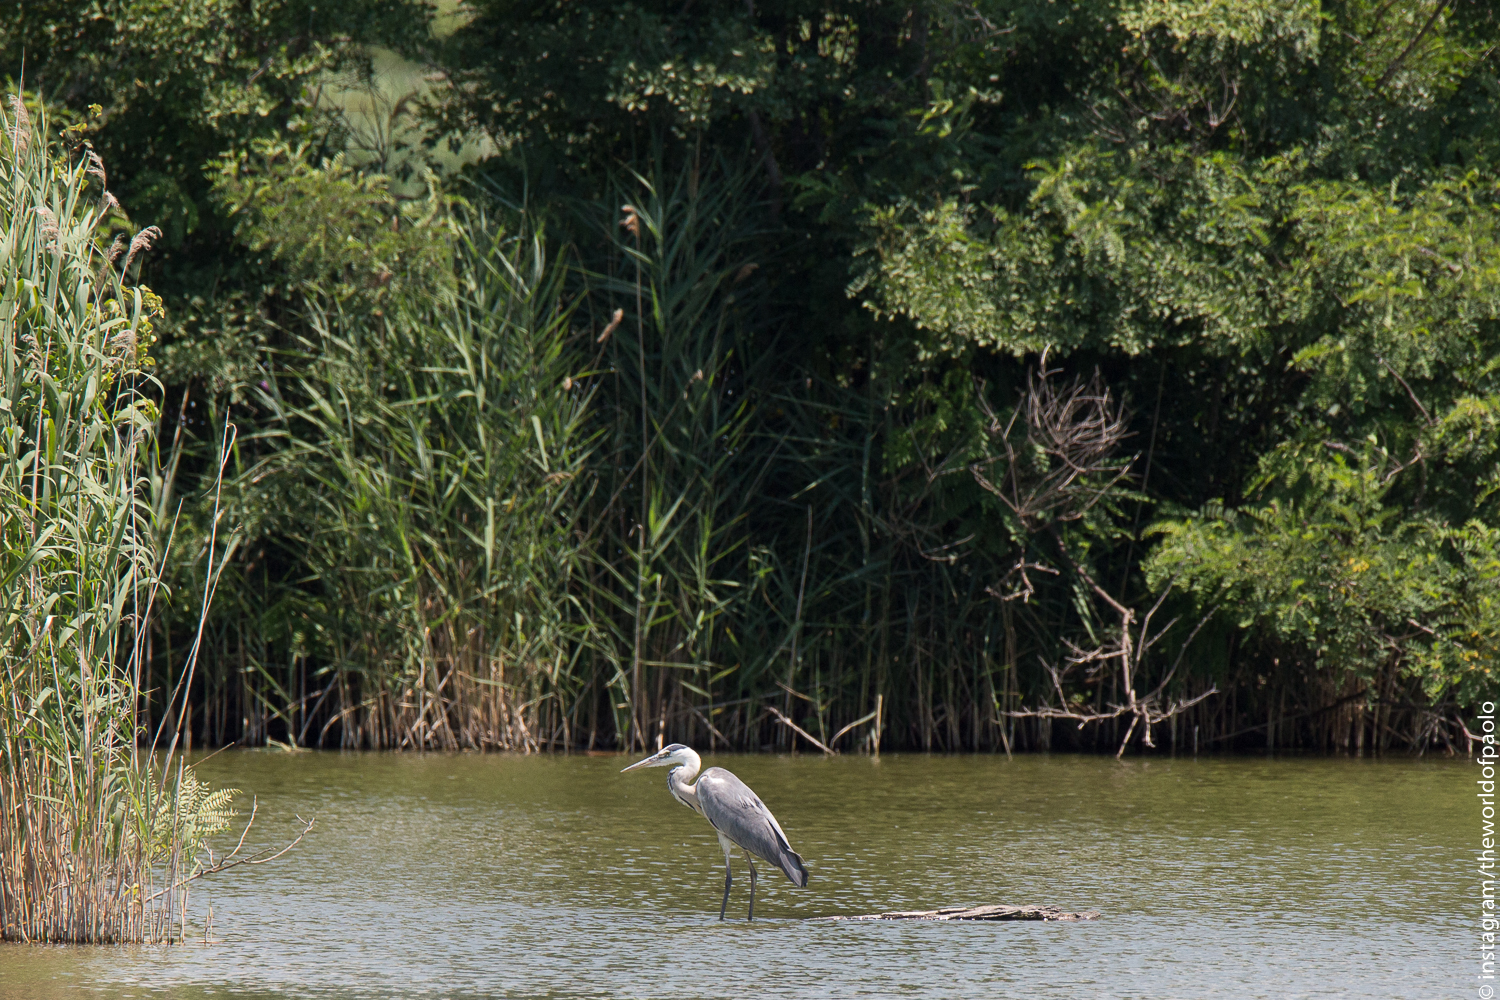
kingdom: Animalia
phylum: Chordata
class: Aves
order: Pelecaniformes
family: Ardeidae
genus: Ardea
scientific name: Ardea cinerea
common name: Grey heron
